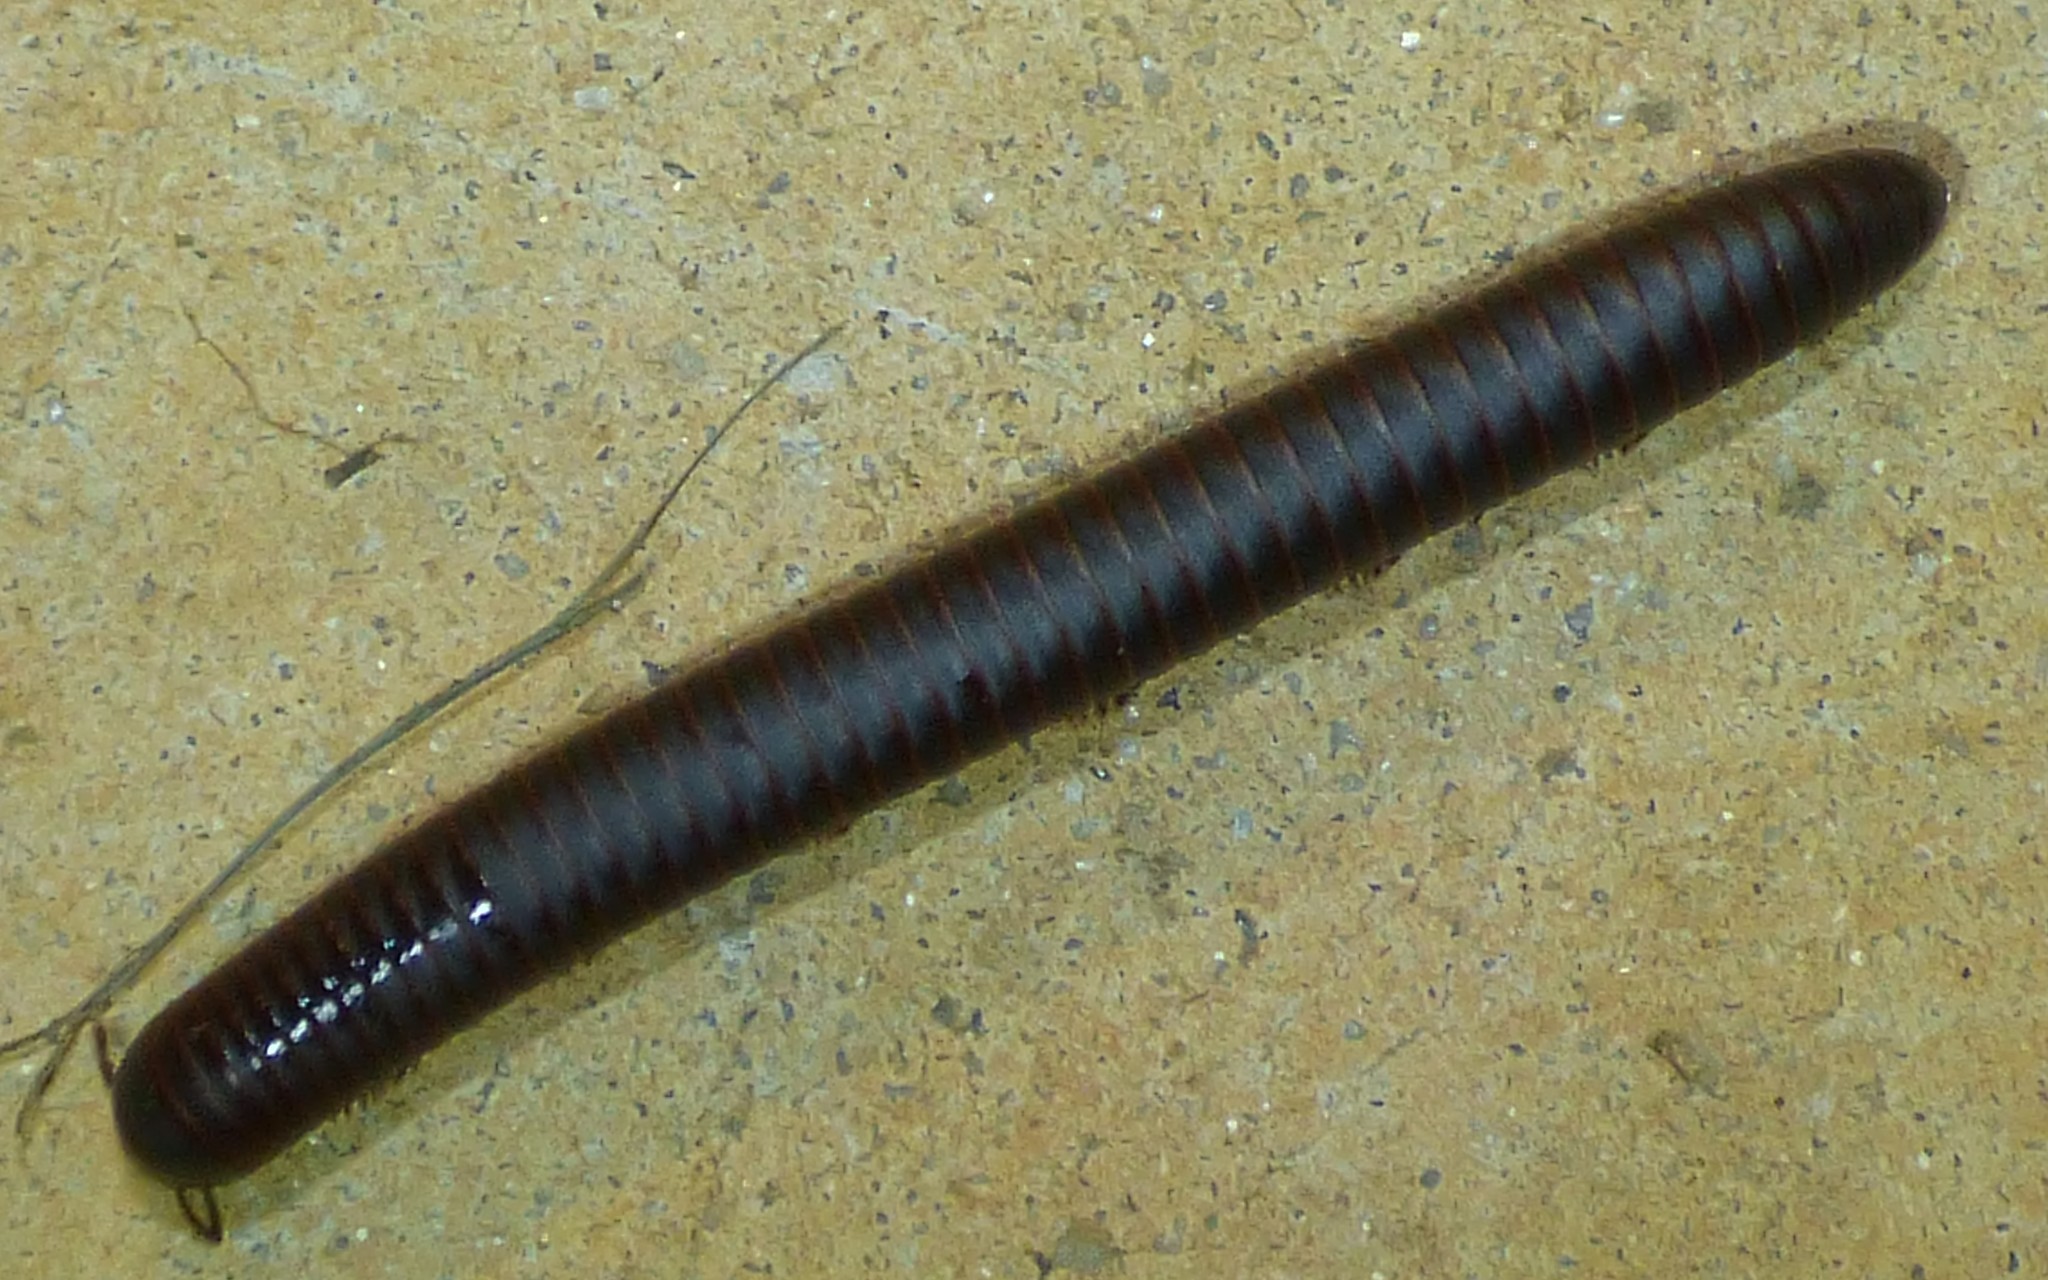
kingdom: Animalia
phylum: Arthropoda
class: Diplopoda
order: Spirobolida
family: Spirobolidae
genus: Narceus
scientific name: Narceus
